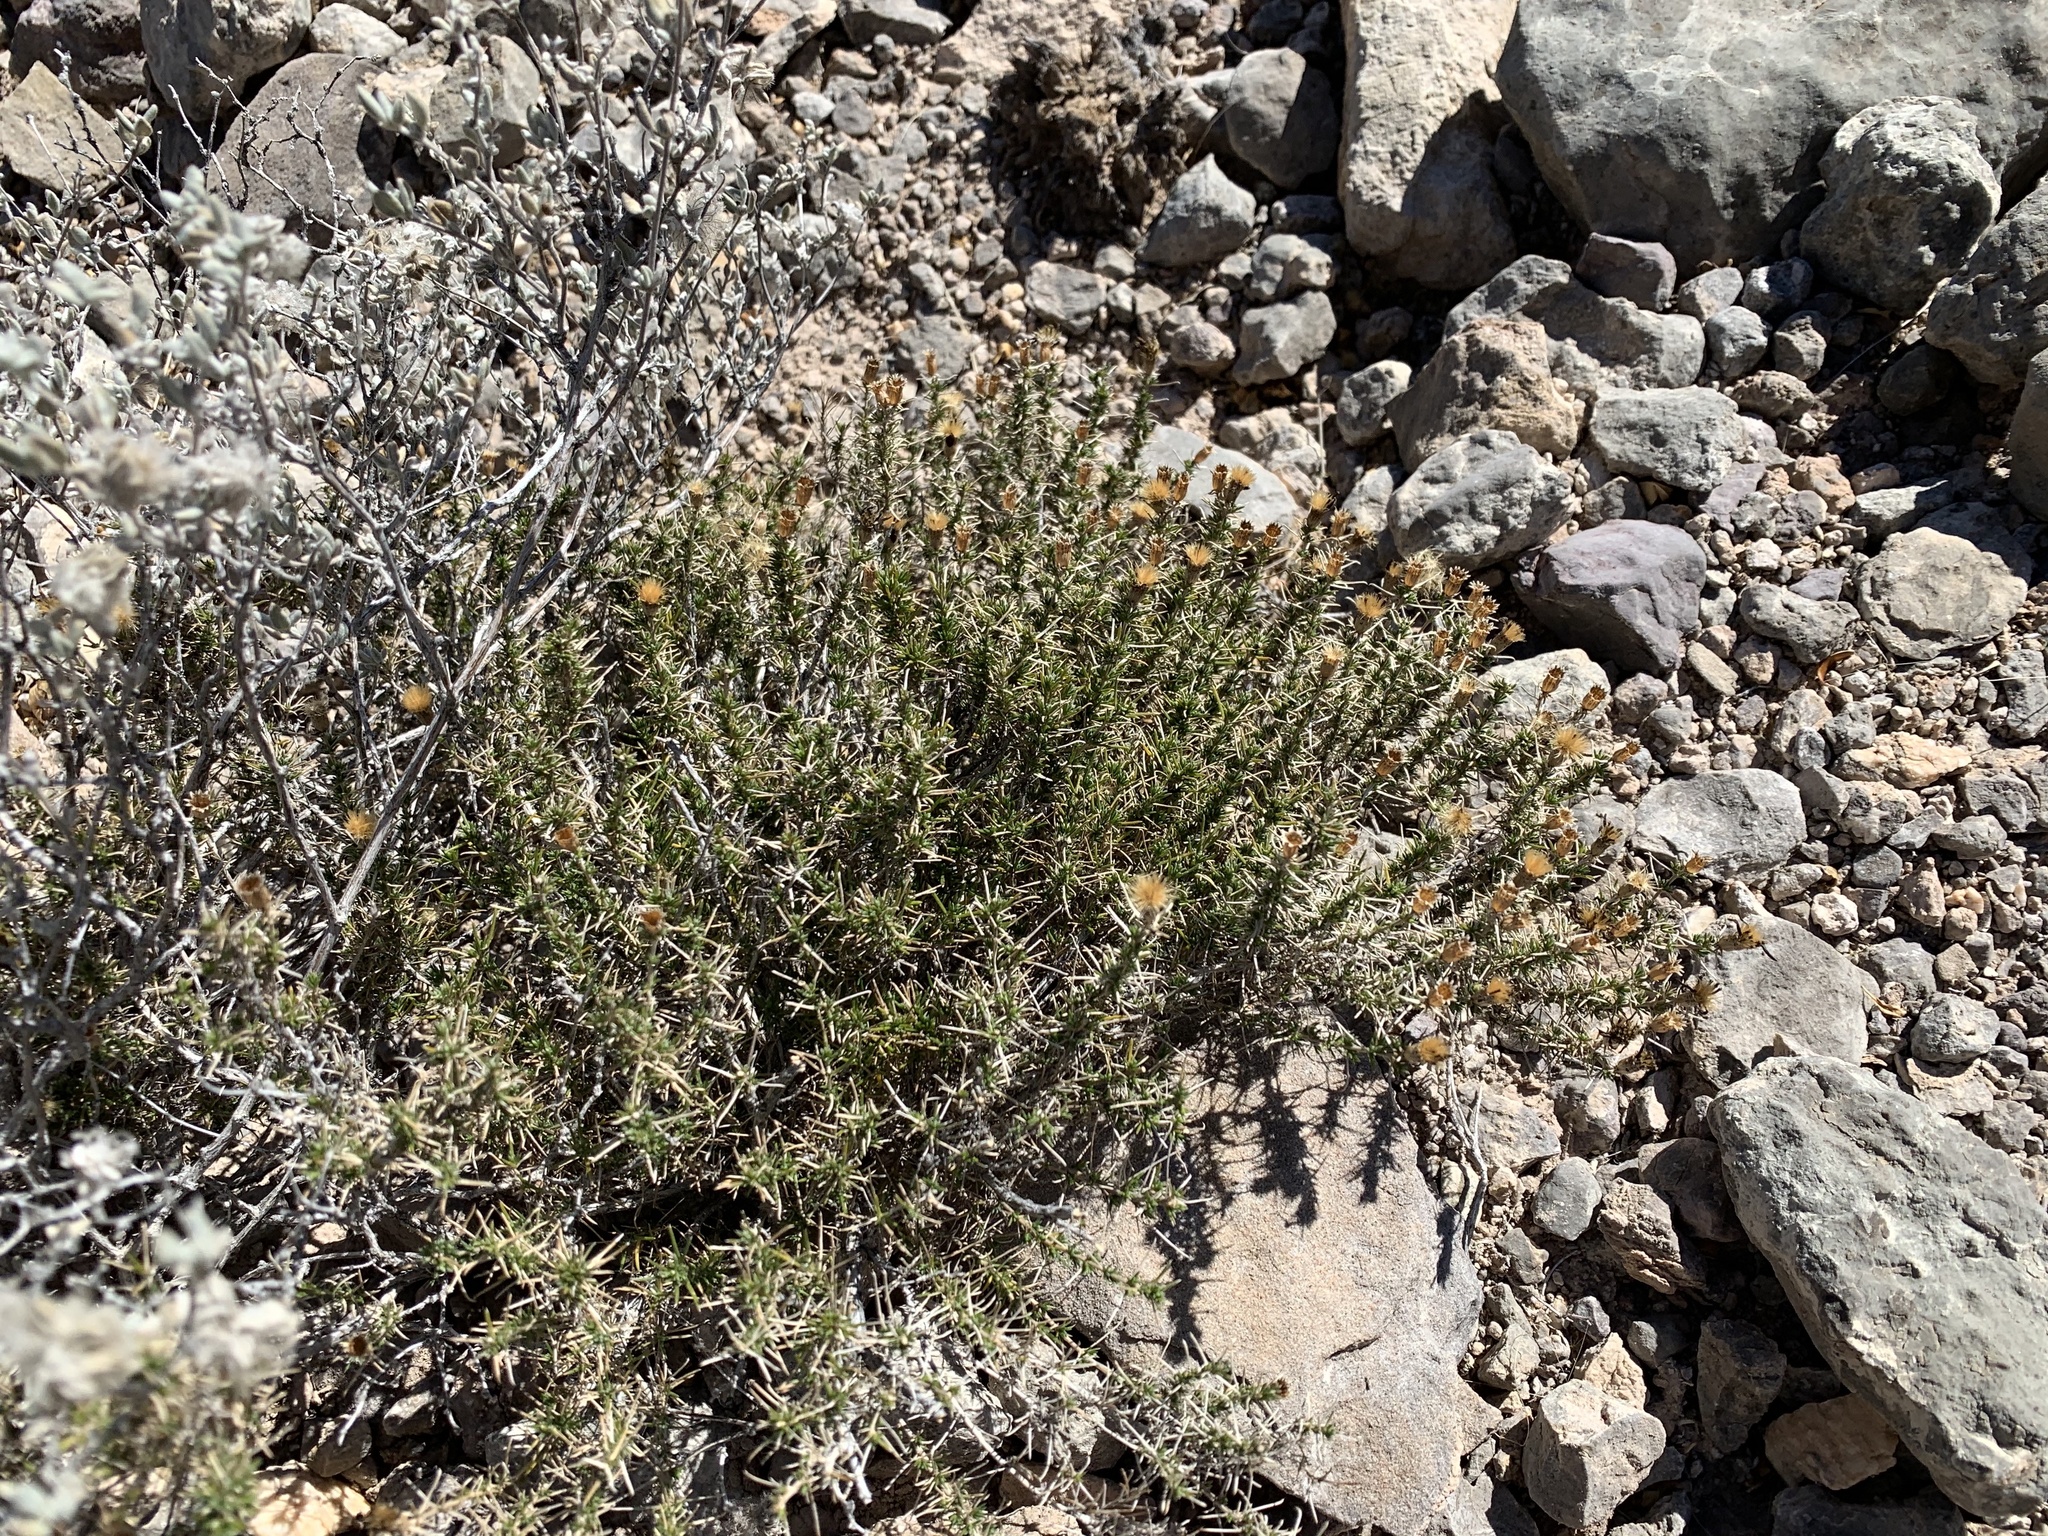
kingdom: Plantae
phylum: Tracheophyta
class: Magnoliopsida
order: Asterales
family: Asteraceae
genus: Thymophylla
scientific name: Thymophylla acerosa
